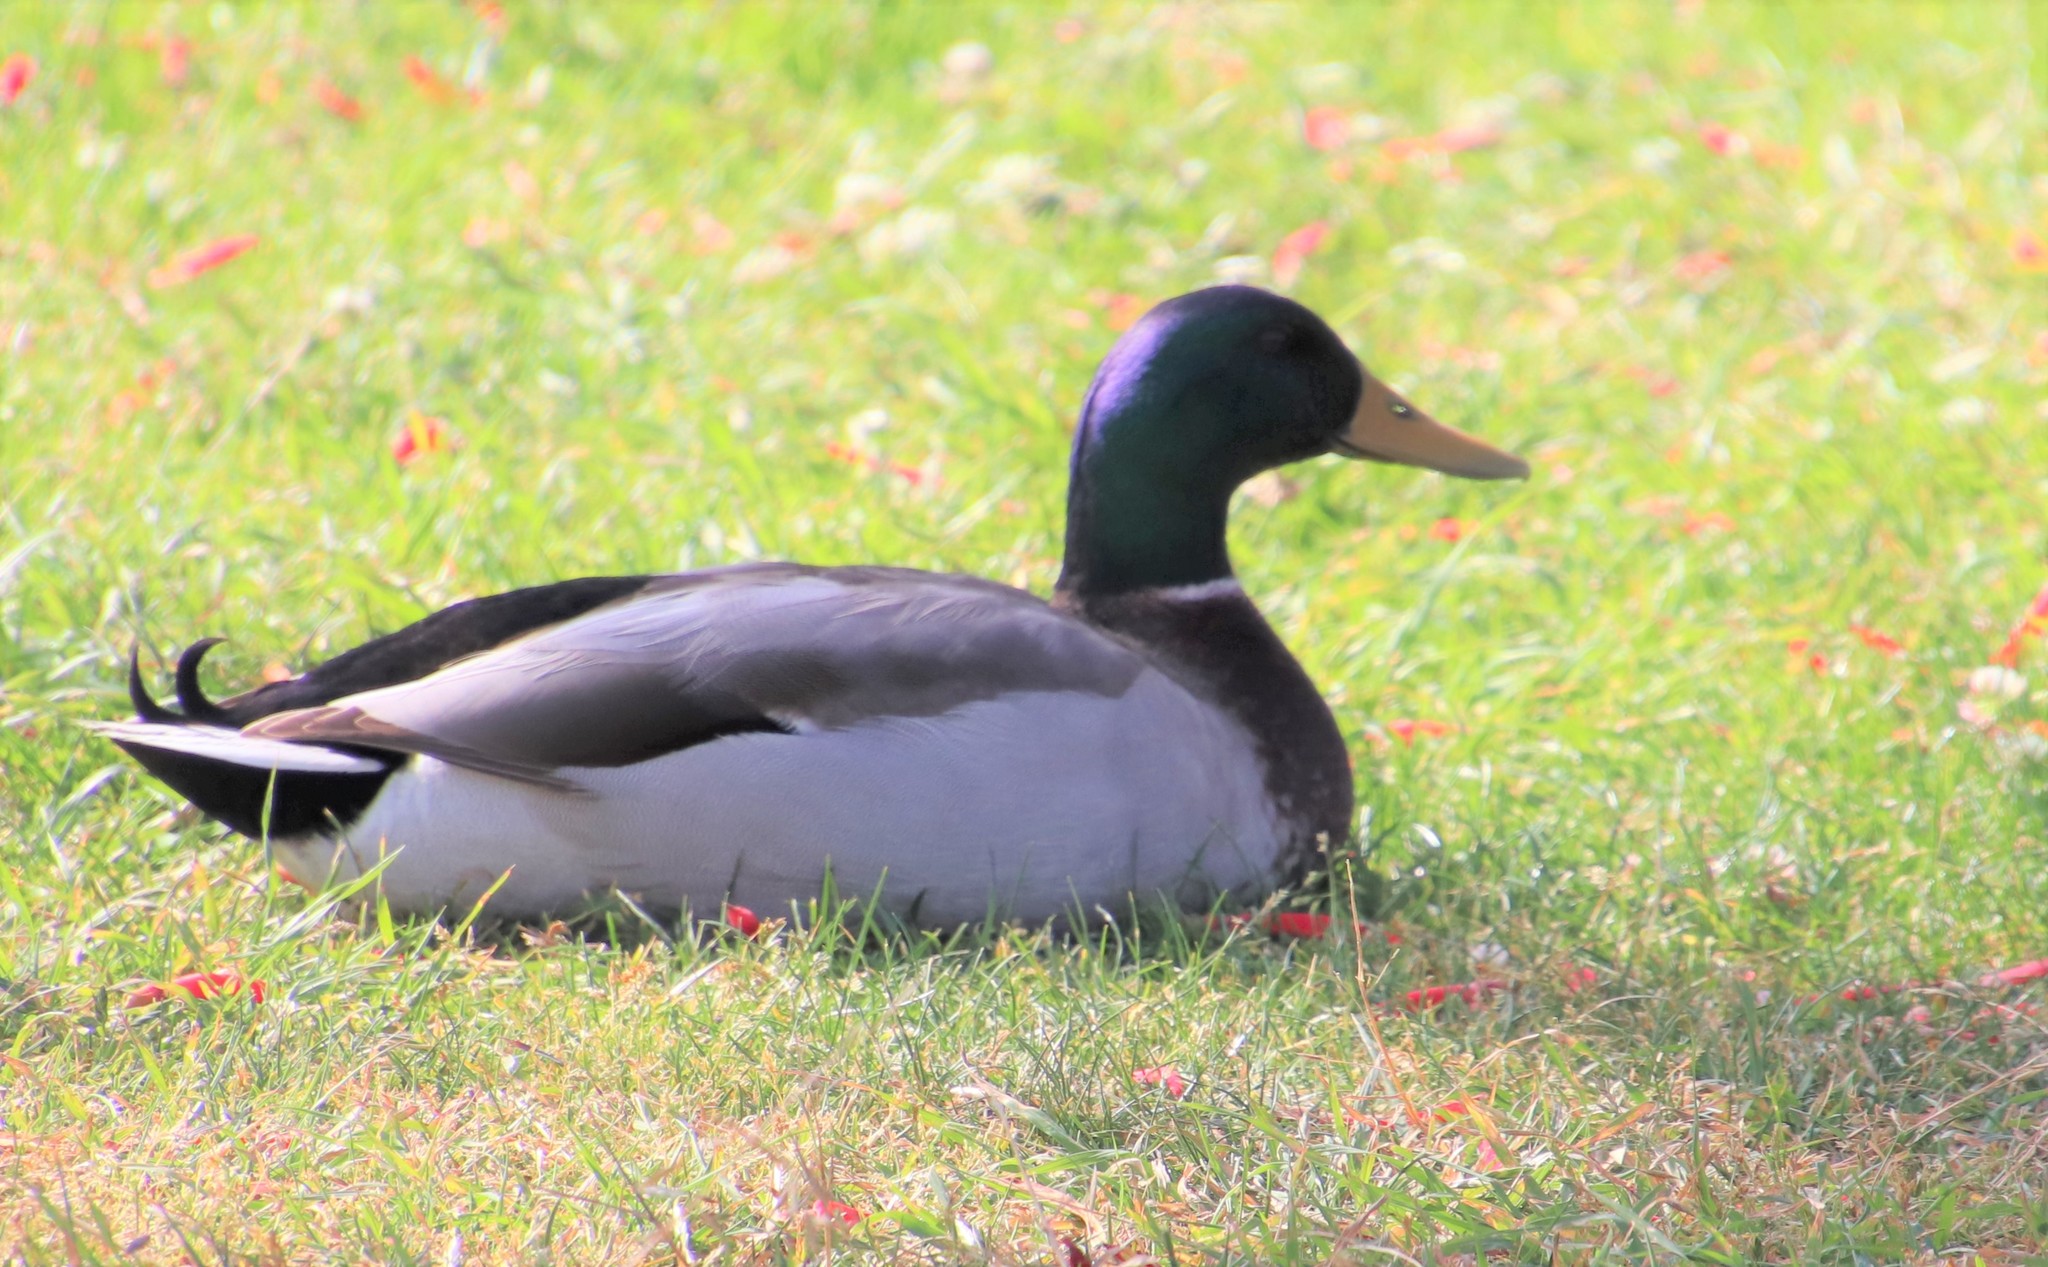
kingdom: Animalia
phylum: Chordata
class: Aves
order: Anseriformes
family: Anatidae
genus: Anas
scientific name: Anas platyrhynchos
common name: Mallard
